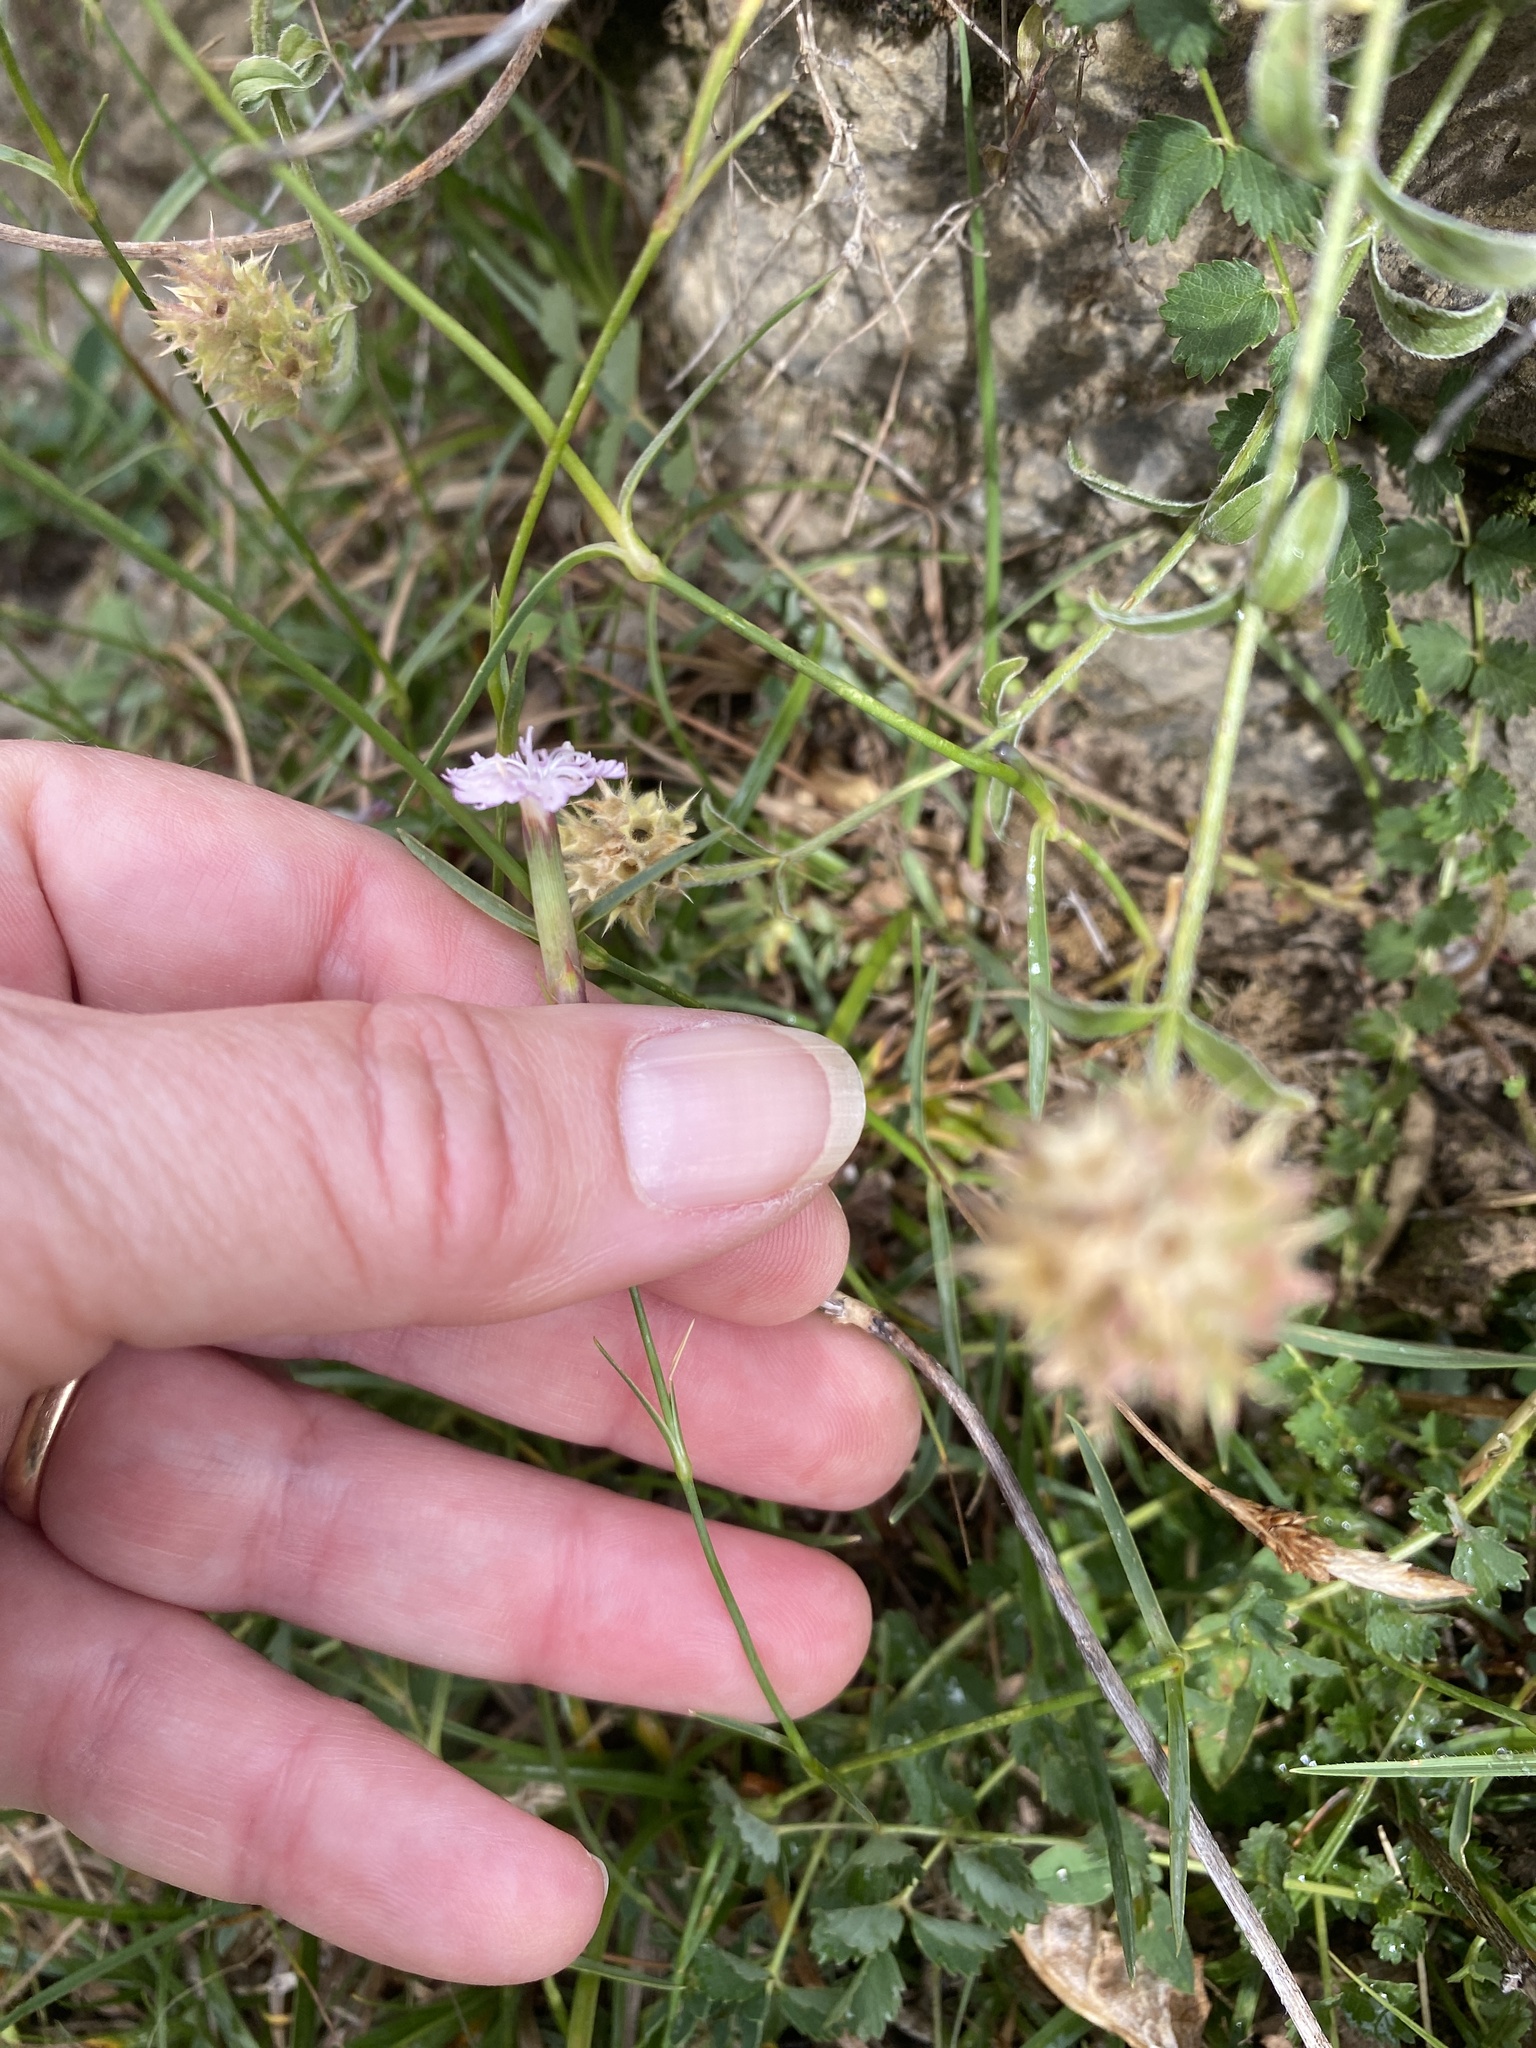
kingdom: Plantae
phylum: Tracheophyta
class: Magnoliopsida
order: Caryophyllales
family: Caryophyllaceae
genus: Dianthus
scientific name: Dianthus benearnensis
